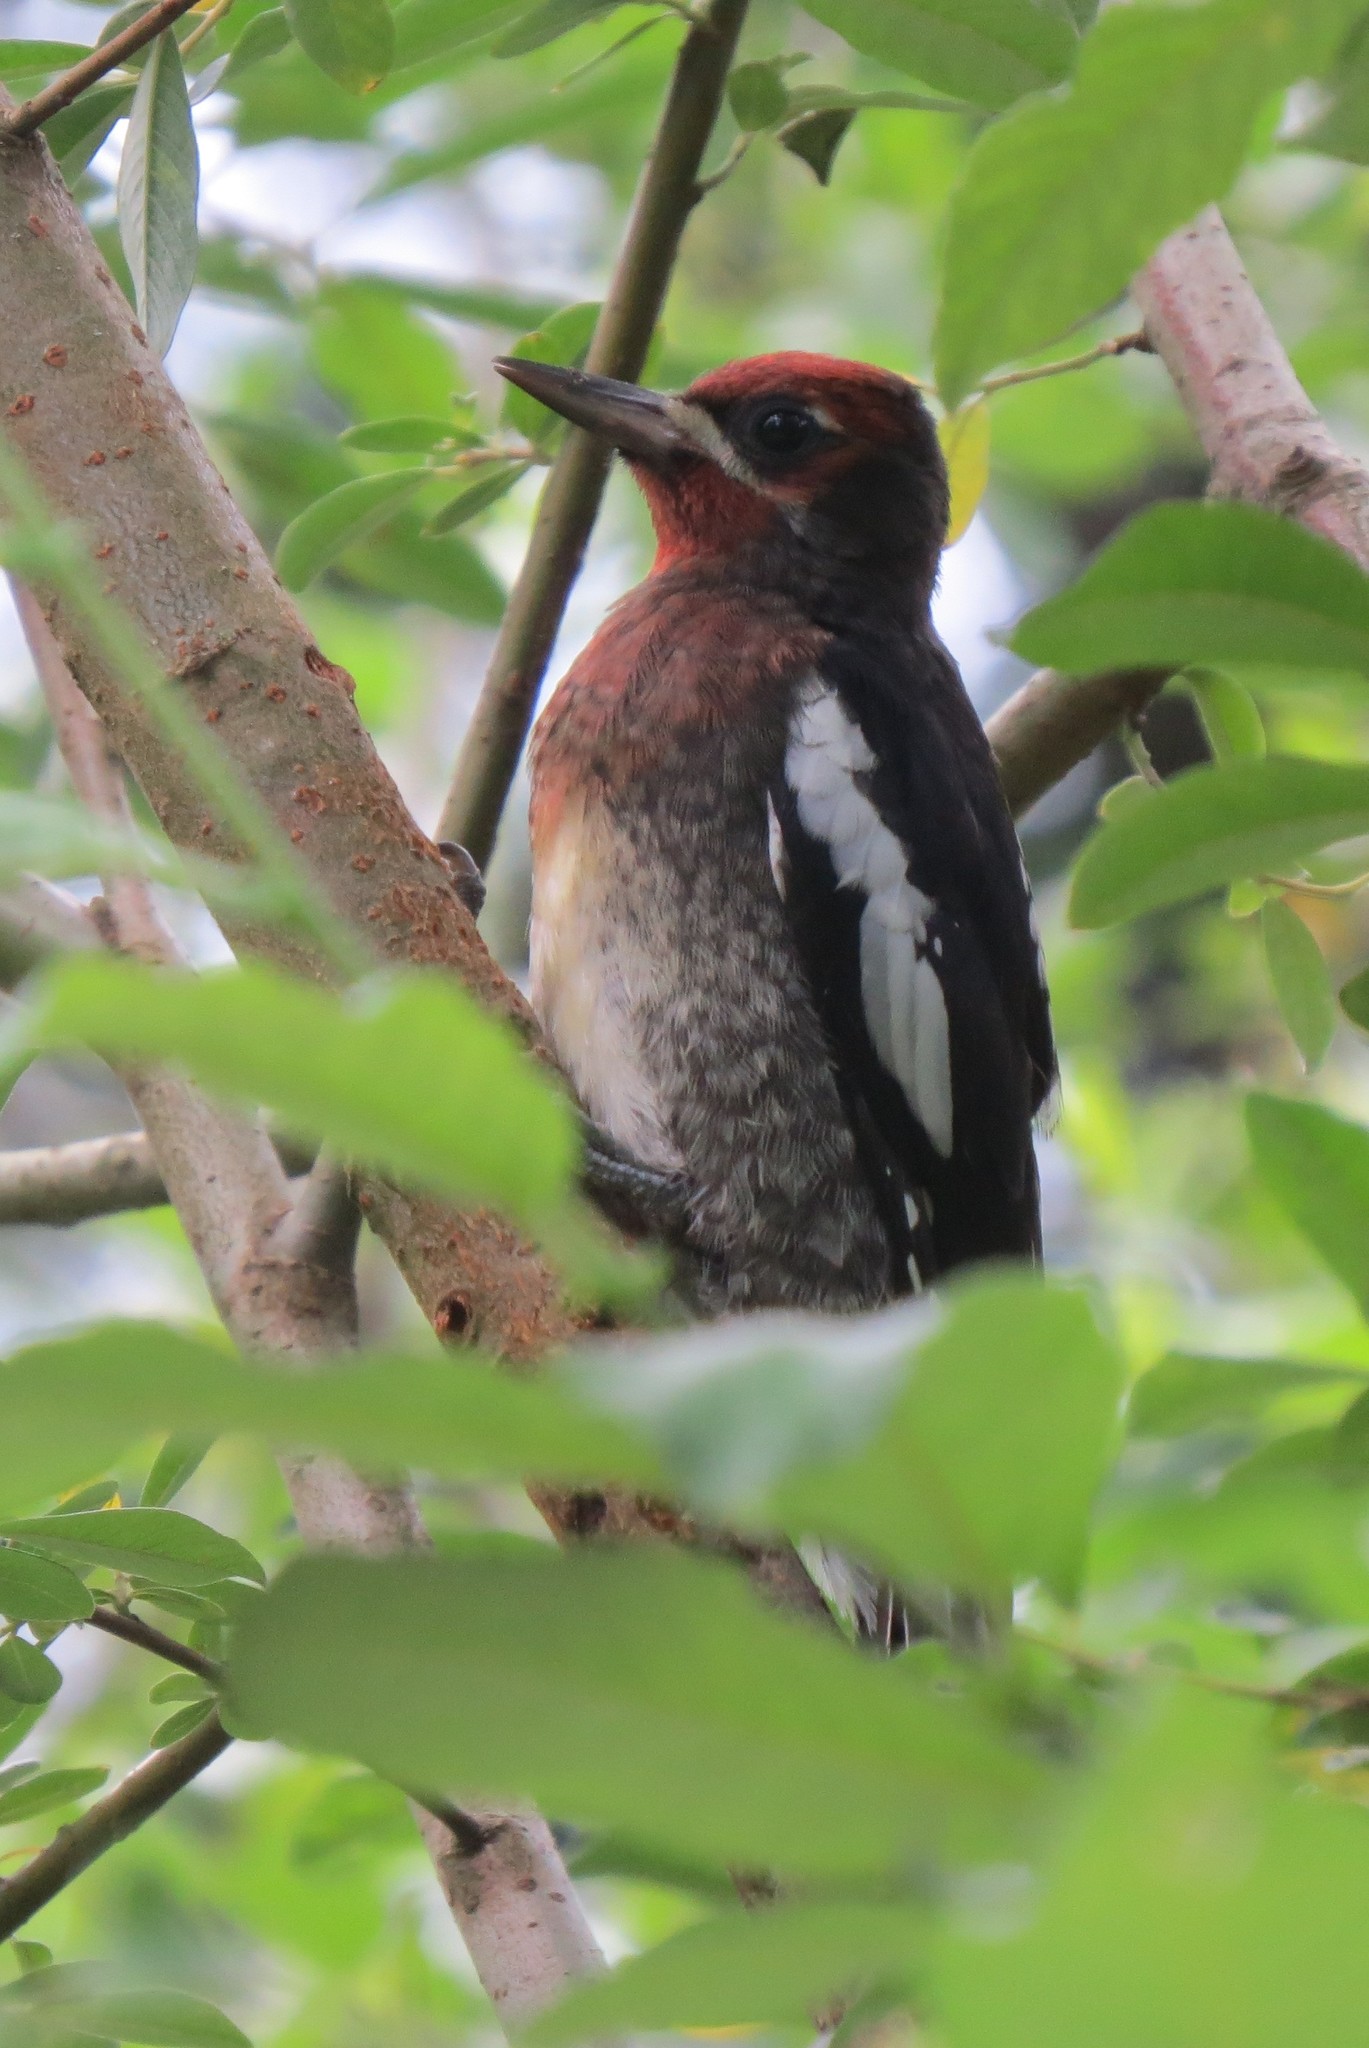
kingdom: Animalia
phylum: Chordata
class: Aves
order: Piciformes
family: Picidae
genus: Sphyrapicus
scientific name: Sphyrapicus ruber
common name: Red-breasted sapsucker
